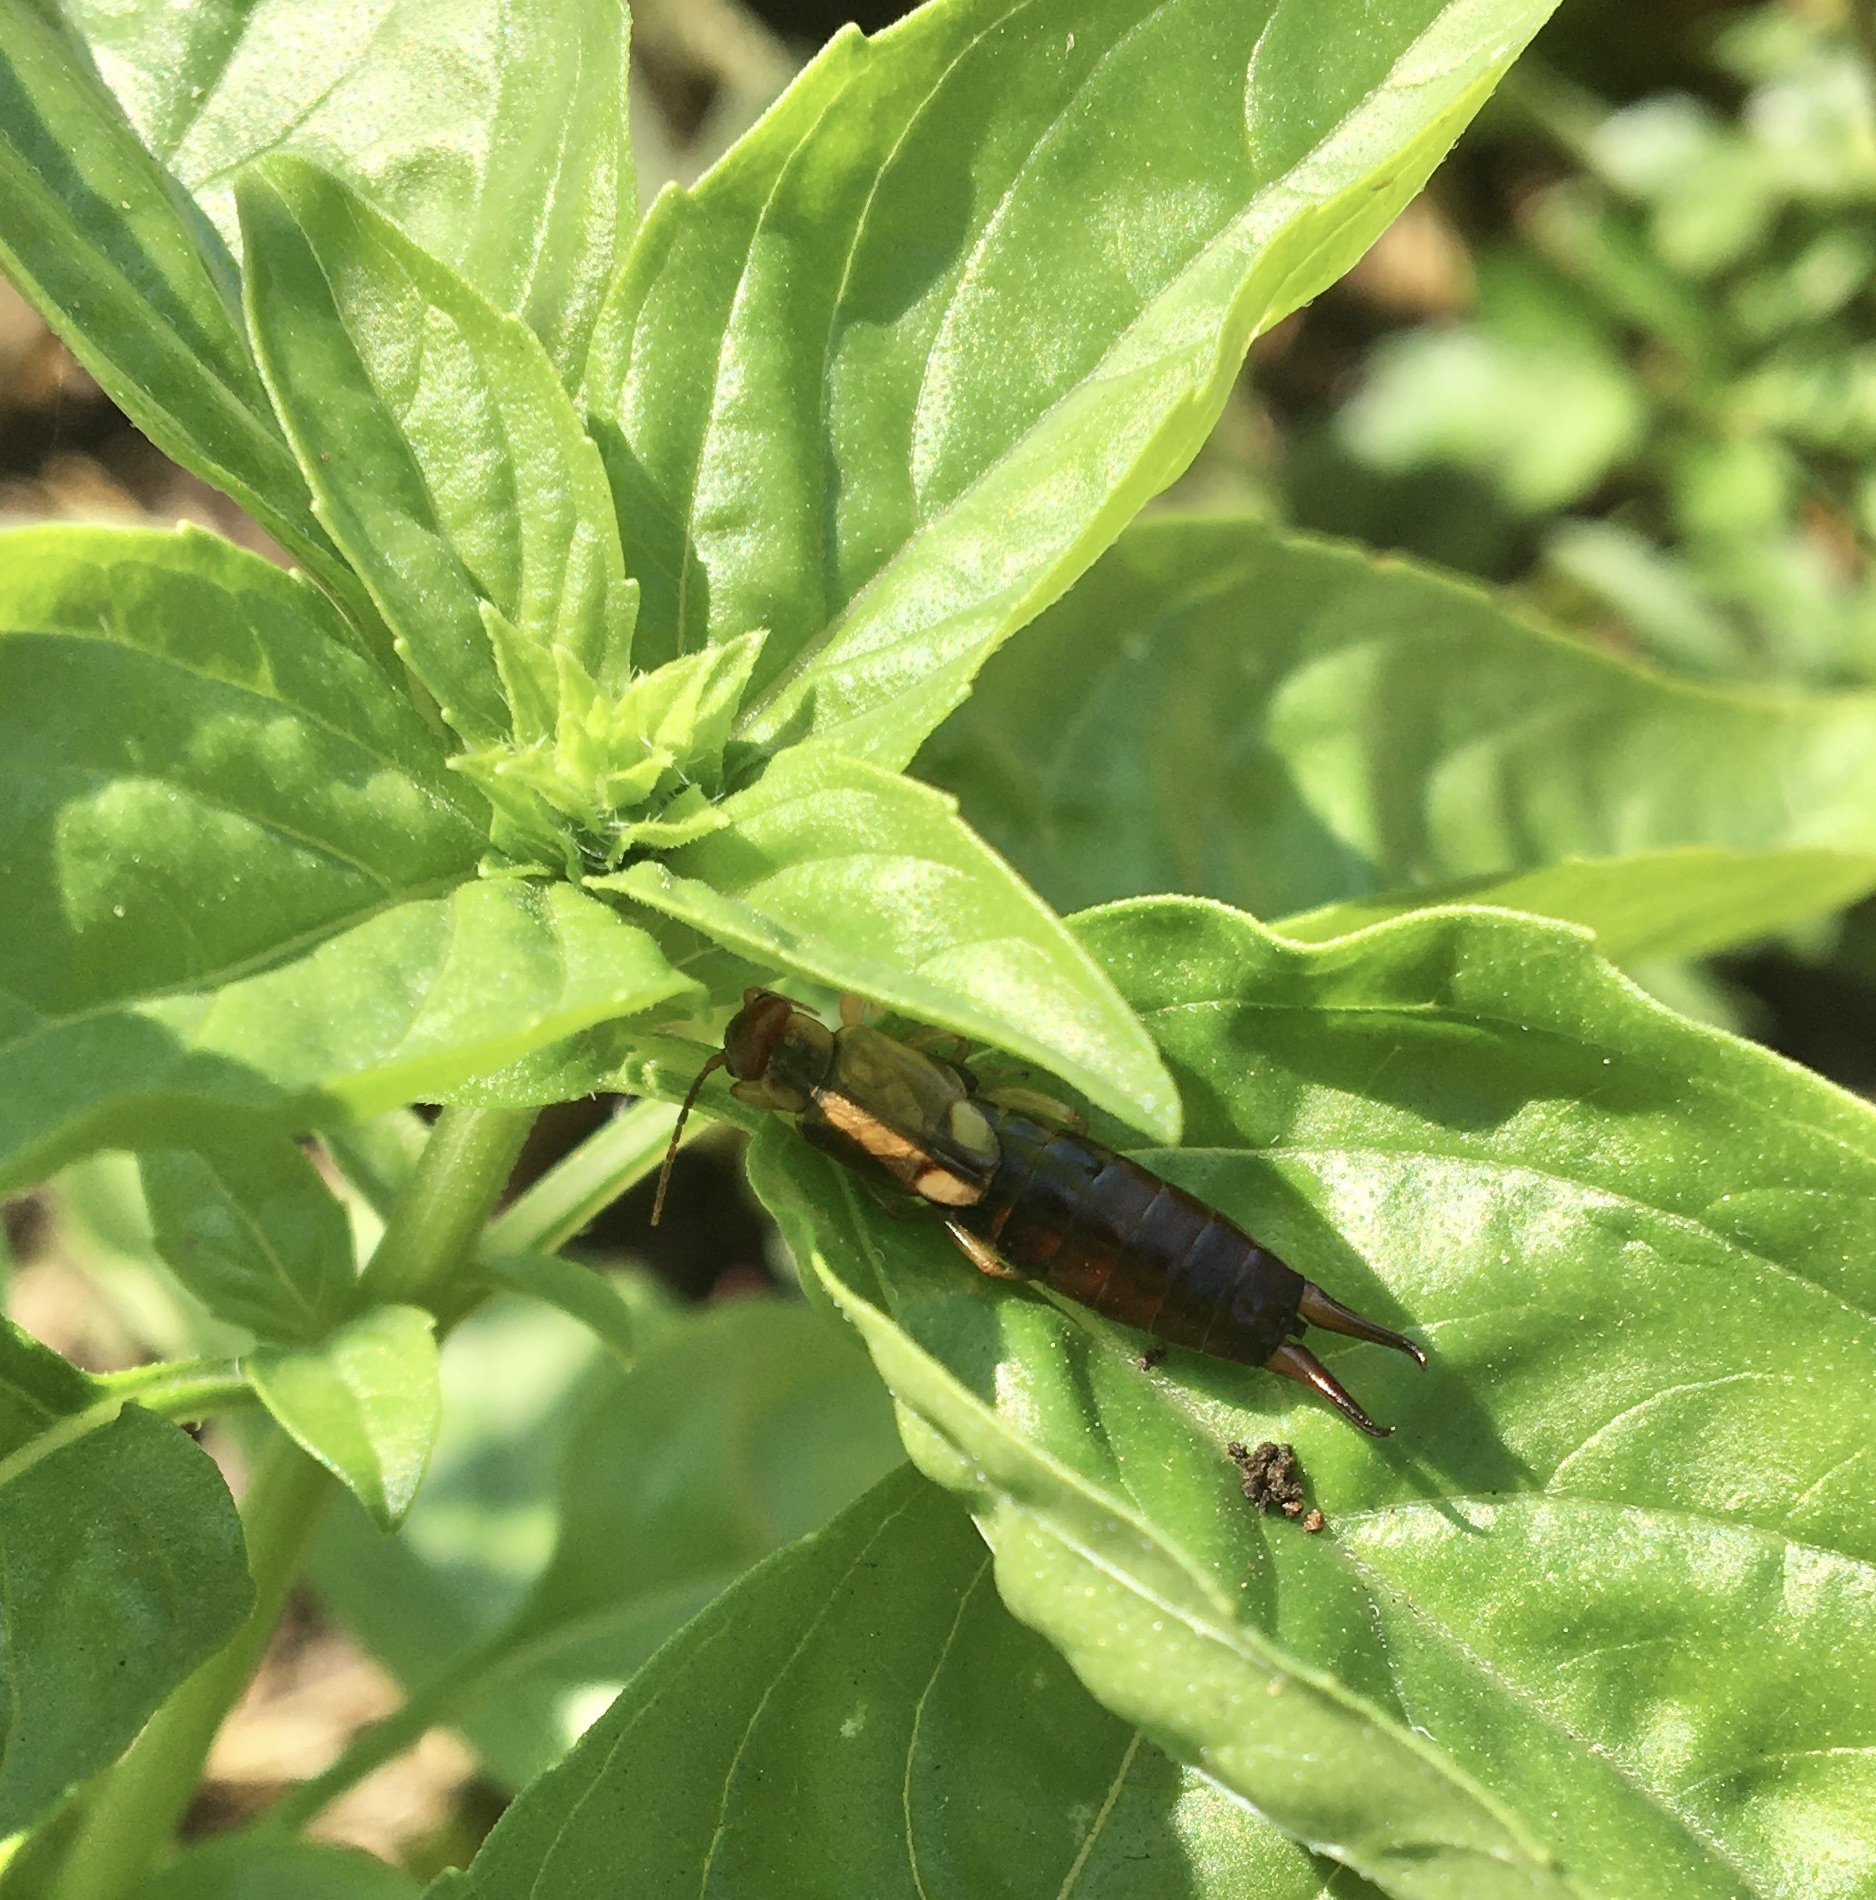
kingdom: Animalia
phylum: Arthropoda
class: Insecta
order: Dermaptera
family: Forficulidae
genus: Forficula
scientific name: Forficula
